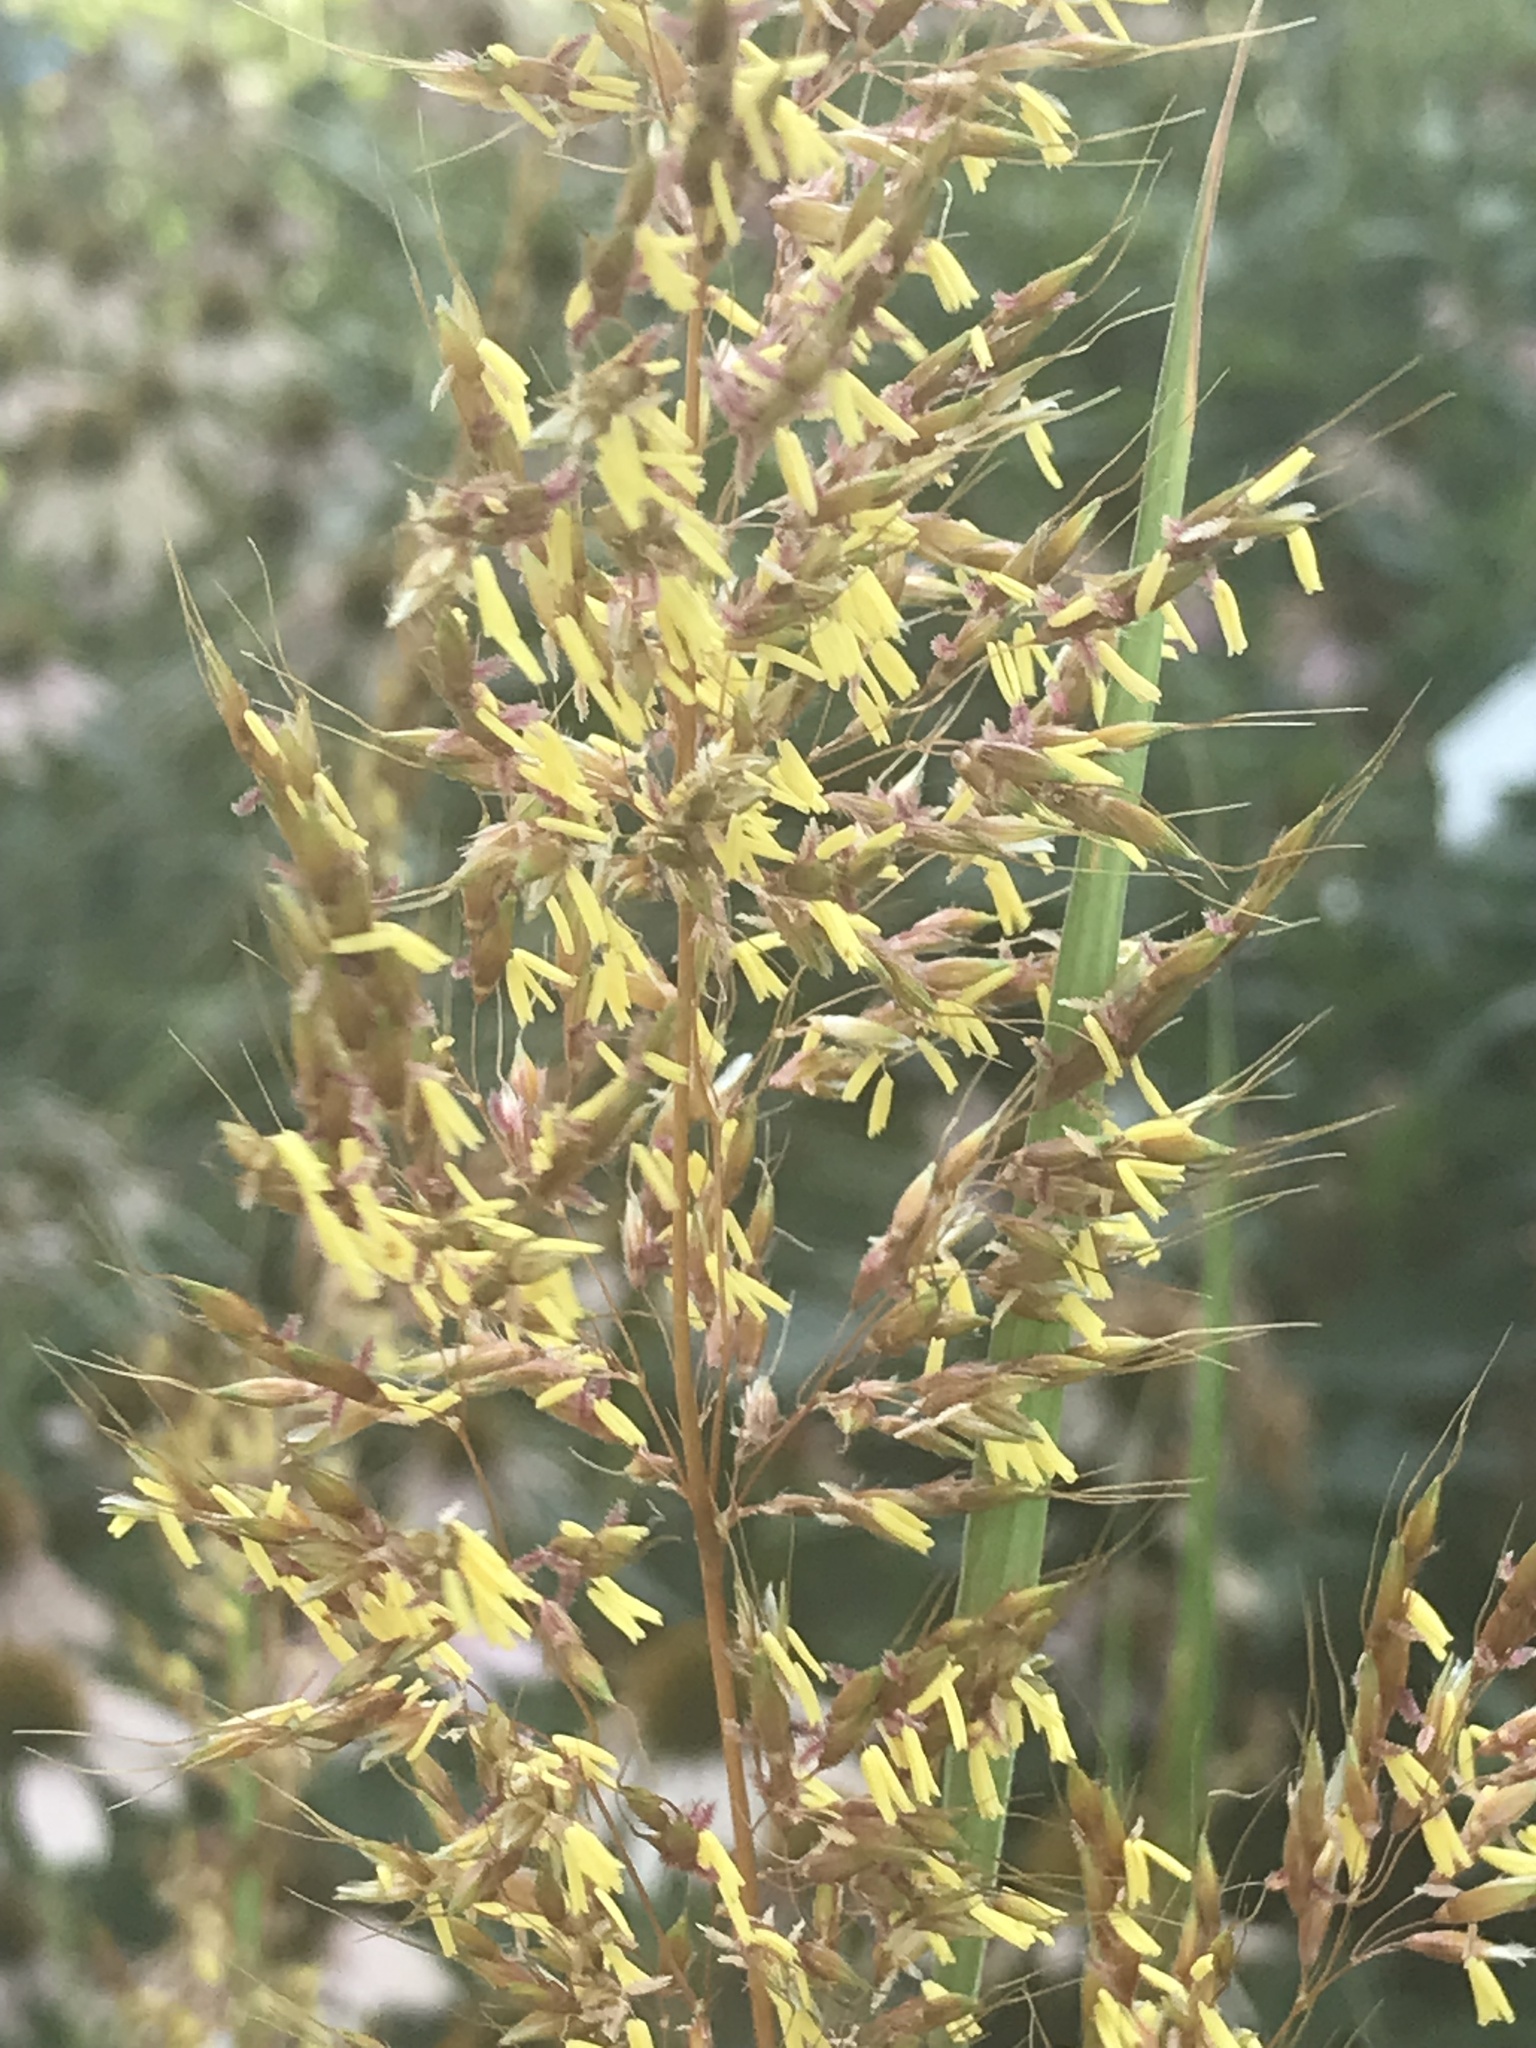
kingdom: Plantae
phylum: Tracheophyta
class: Liliopsida
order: Poales
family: Poaceae
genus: Sorghastrum
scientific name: Sorghastrum nutans
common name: Indian grass
